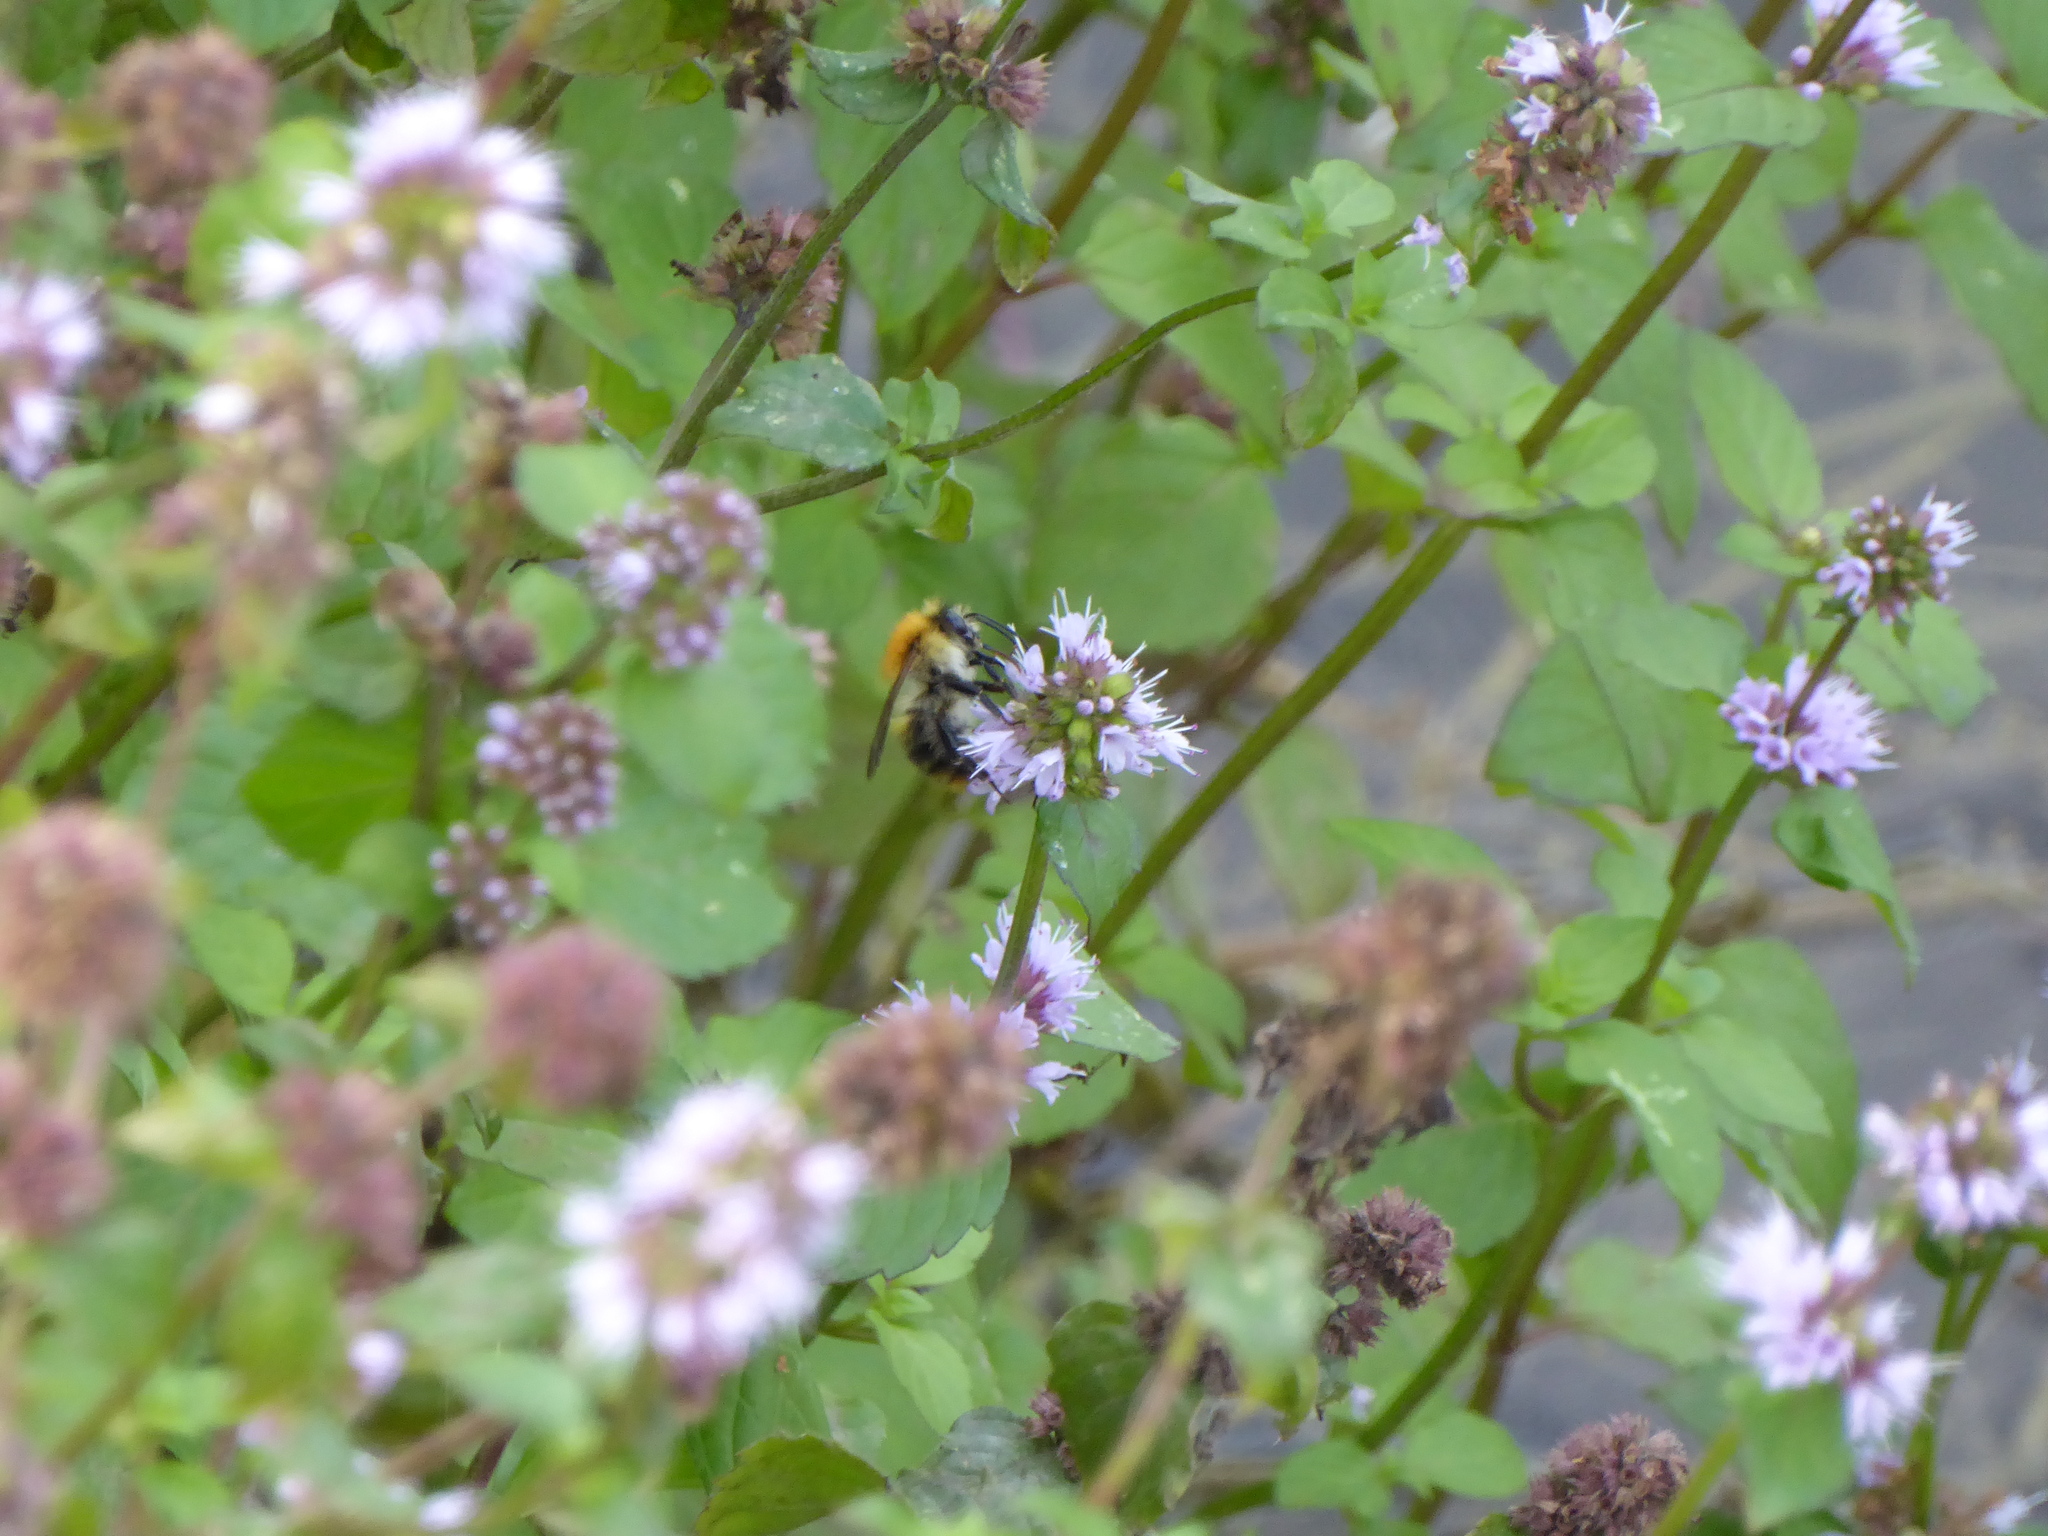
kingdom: Animalia
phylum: Arthropoda
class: Insecta
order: Hymenoptera
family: Apidae
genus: Bombus
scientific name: Bombus pascuorum
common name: Common carder bee
